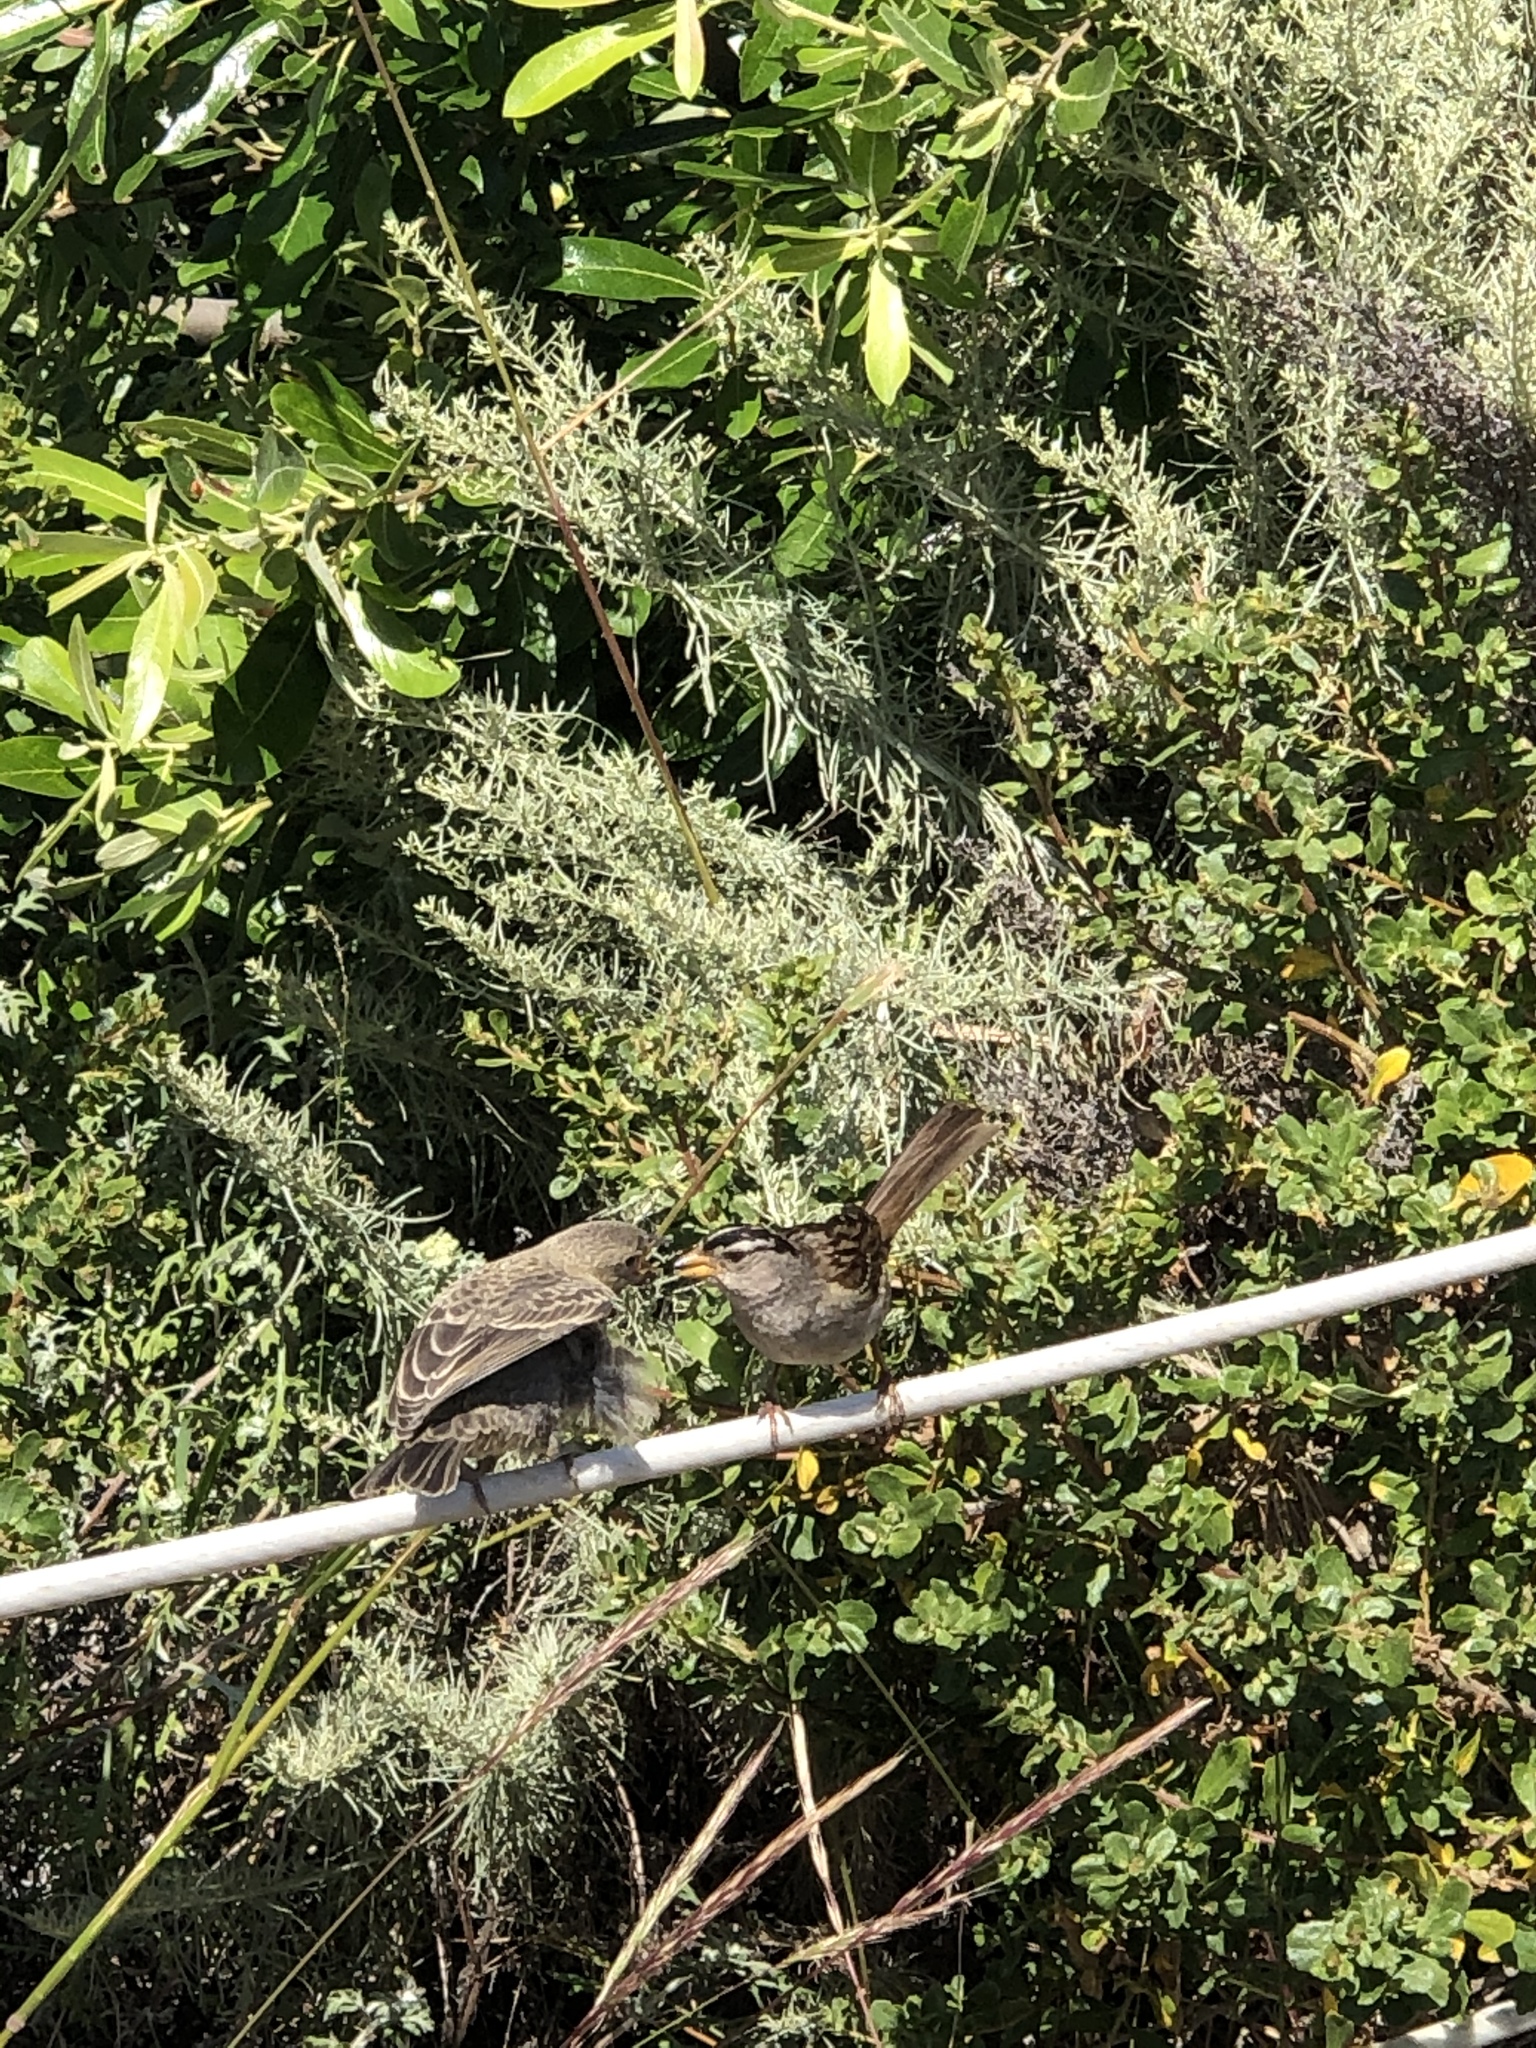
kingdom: Animalia
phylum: Chordata
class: Aves
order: Passeriformes
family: Icteridae
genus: Molothrus
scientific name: Molothrus ater
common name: Brown-headed cowbird
